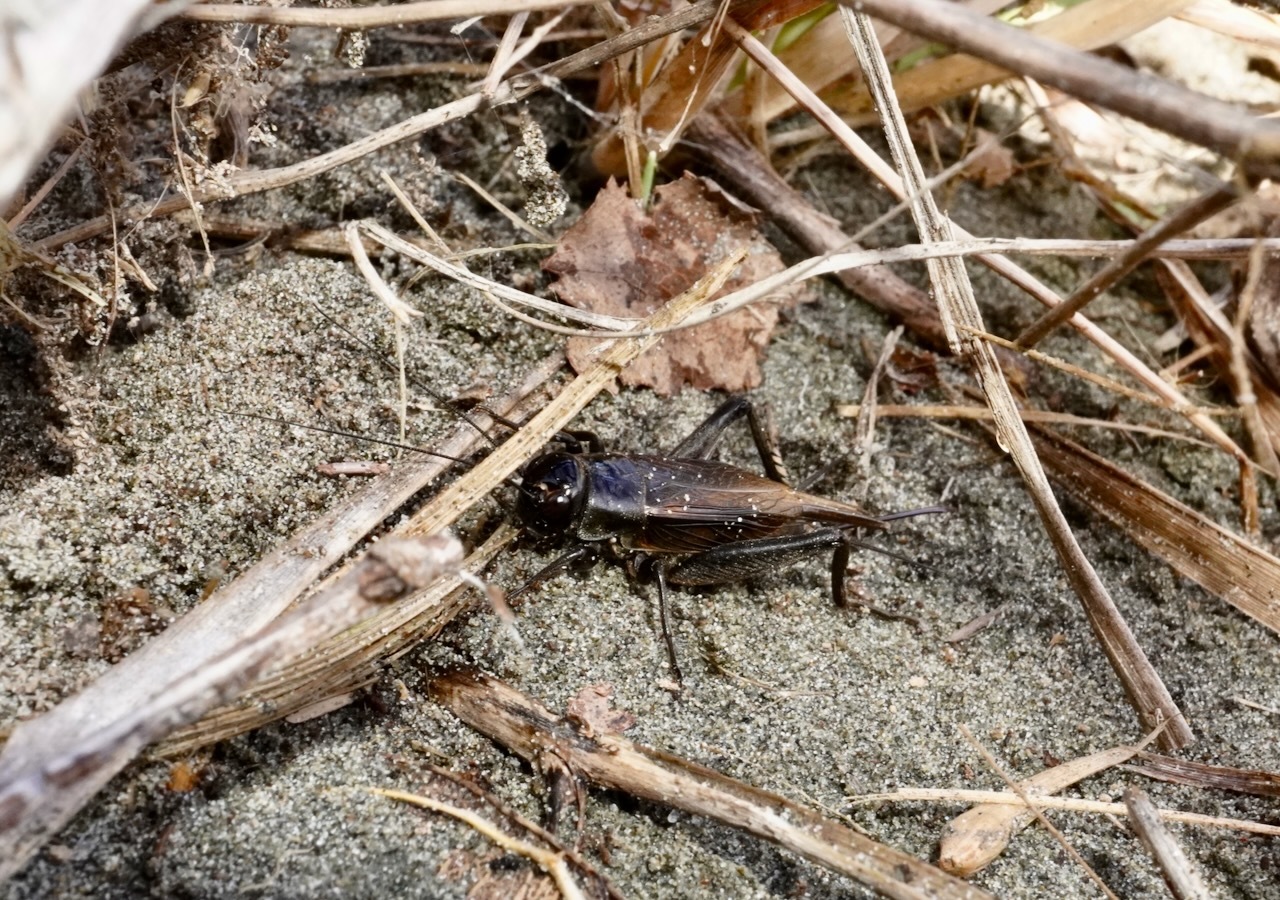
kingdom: Animalia
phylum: Arthropoda
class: Insecta
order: Orthoptera
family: Gryllidae
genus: Teleogryllus
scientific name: Teleogryllus commodus
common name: Black field cricket
